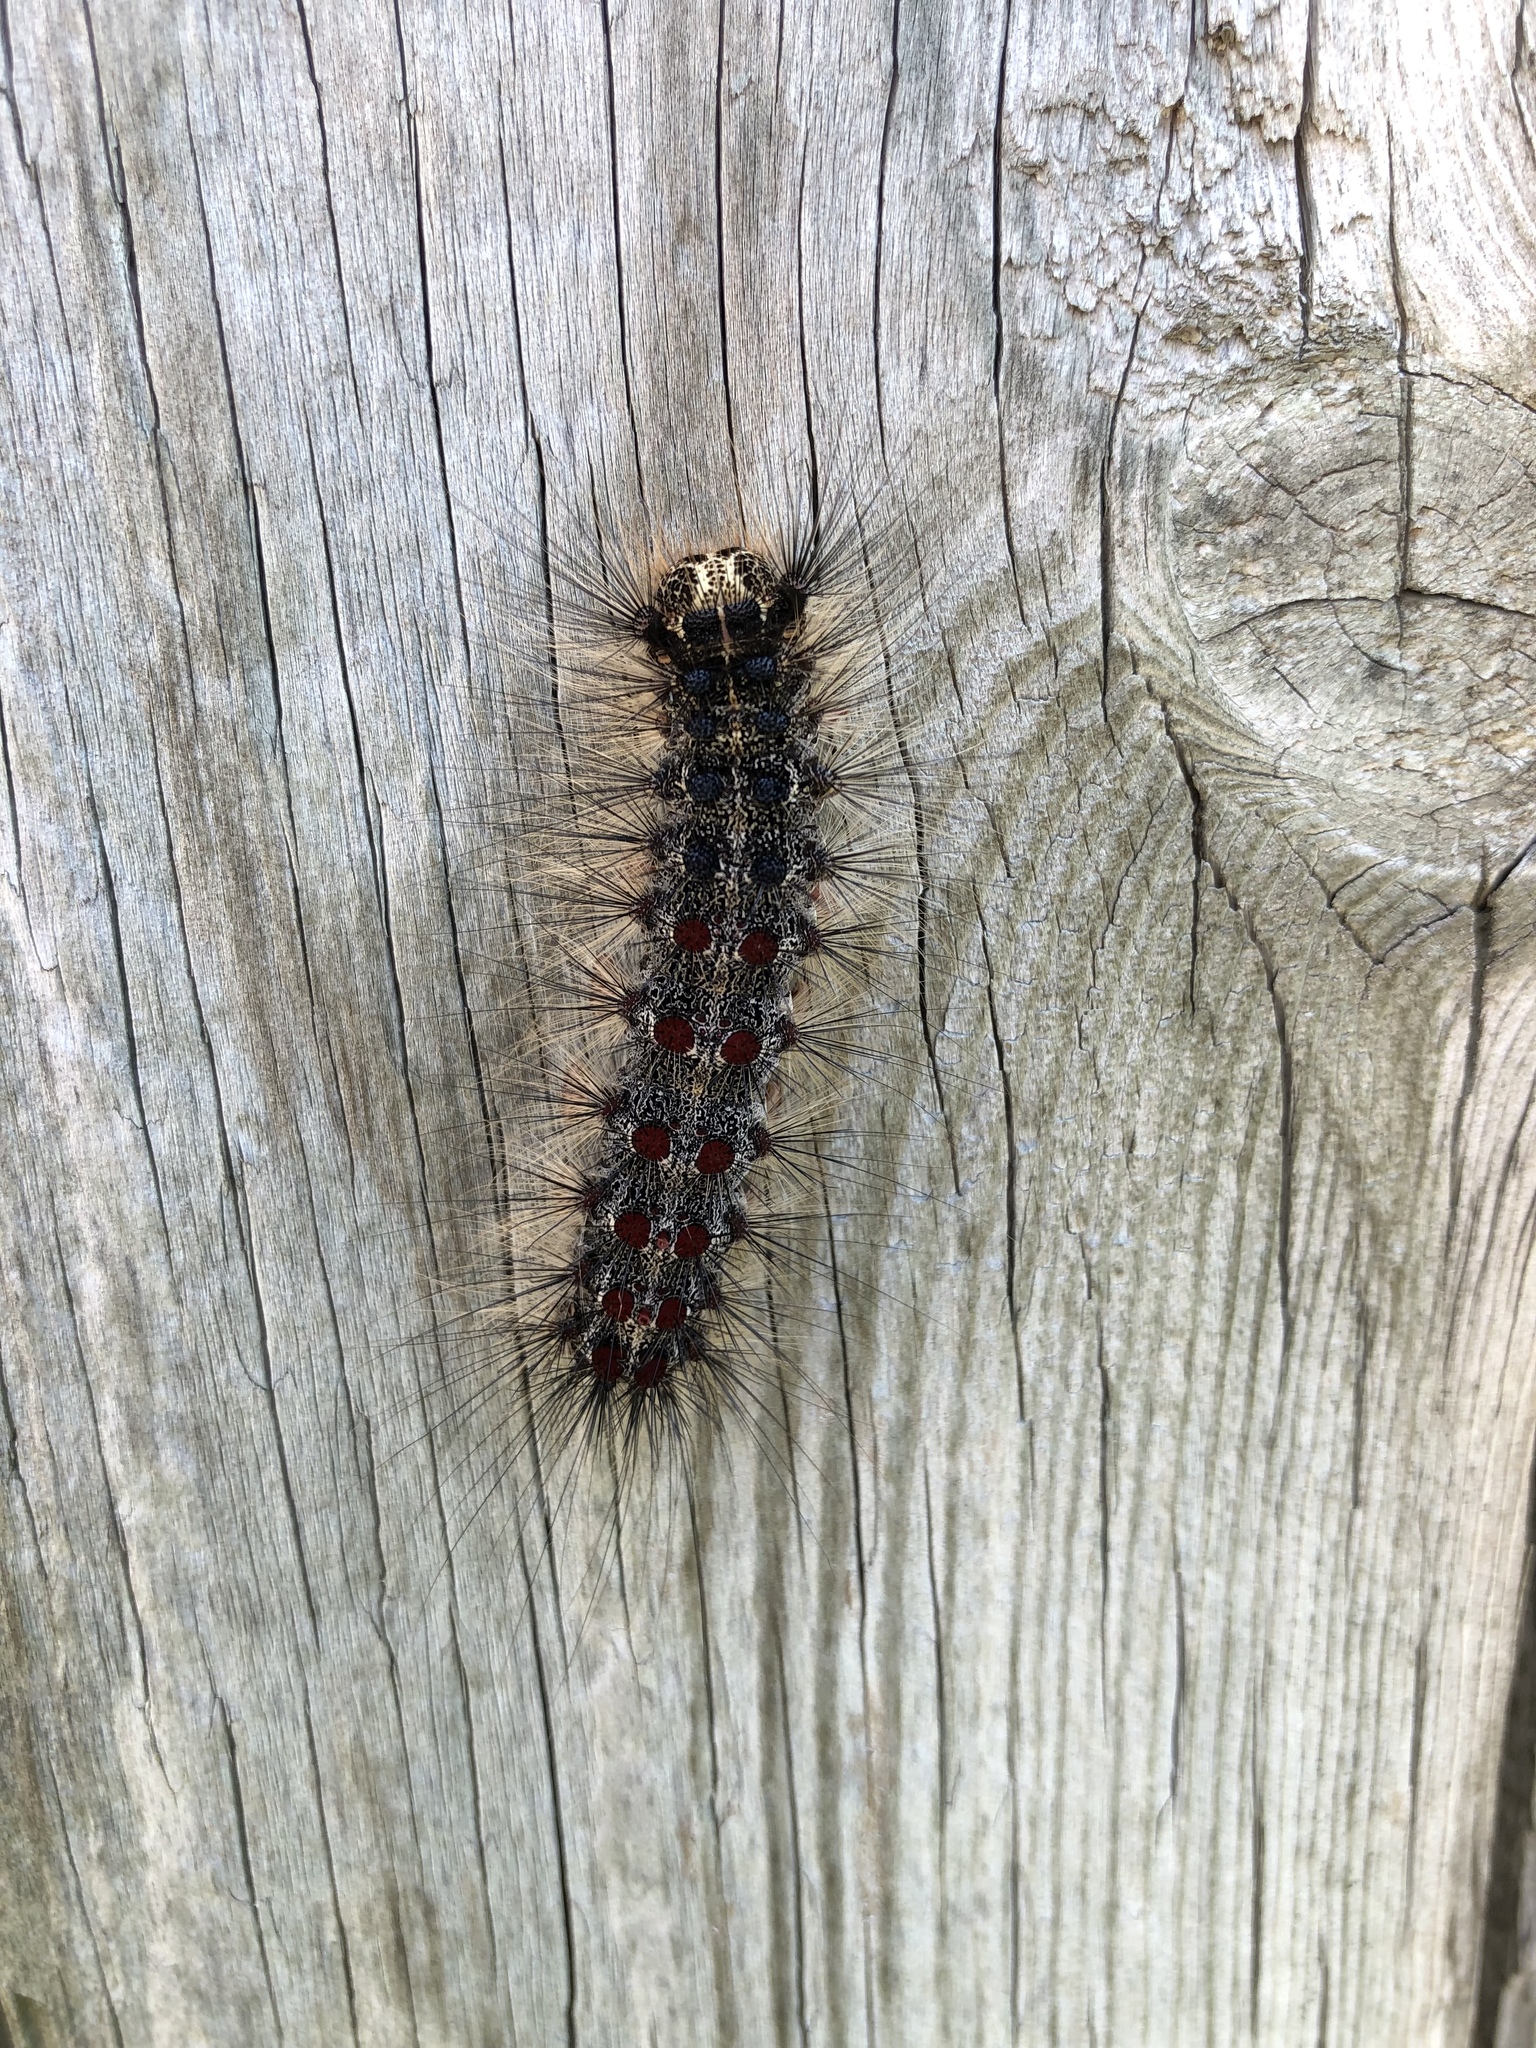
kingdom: Animalia
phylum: Arthropoda
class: Insecta
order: Lepidoptera
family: Erebidae
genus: Lymantria
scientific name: Lymantria dispar
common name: Gypsy moth
